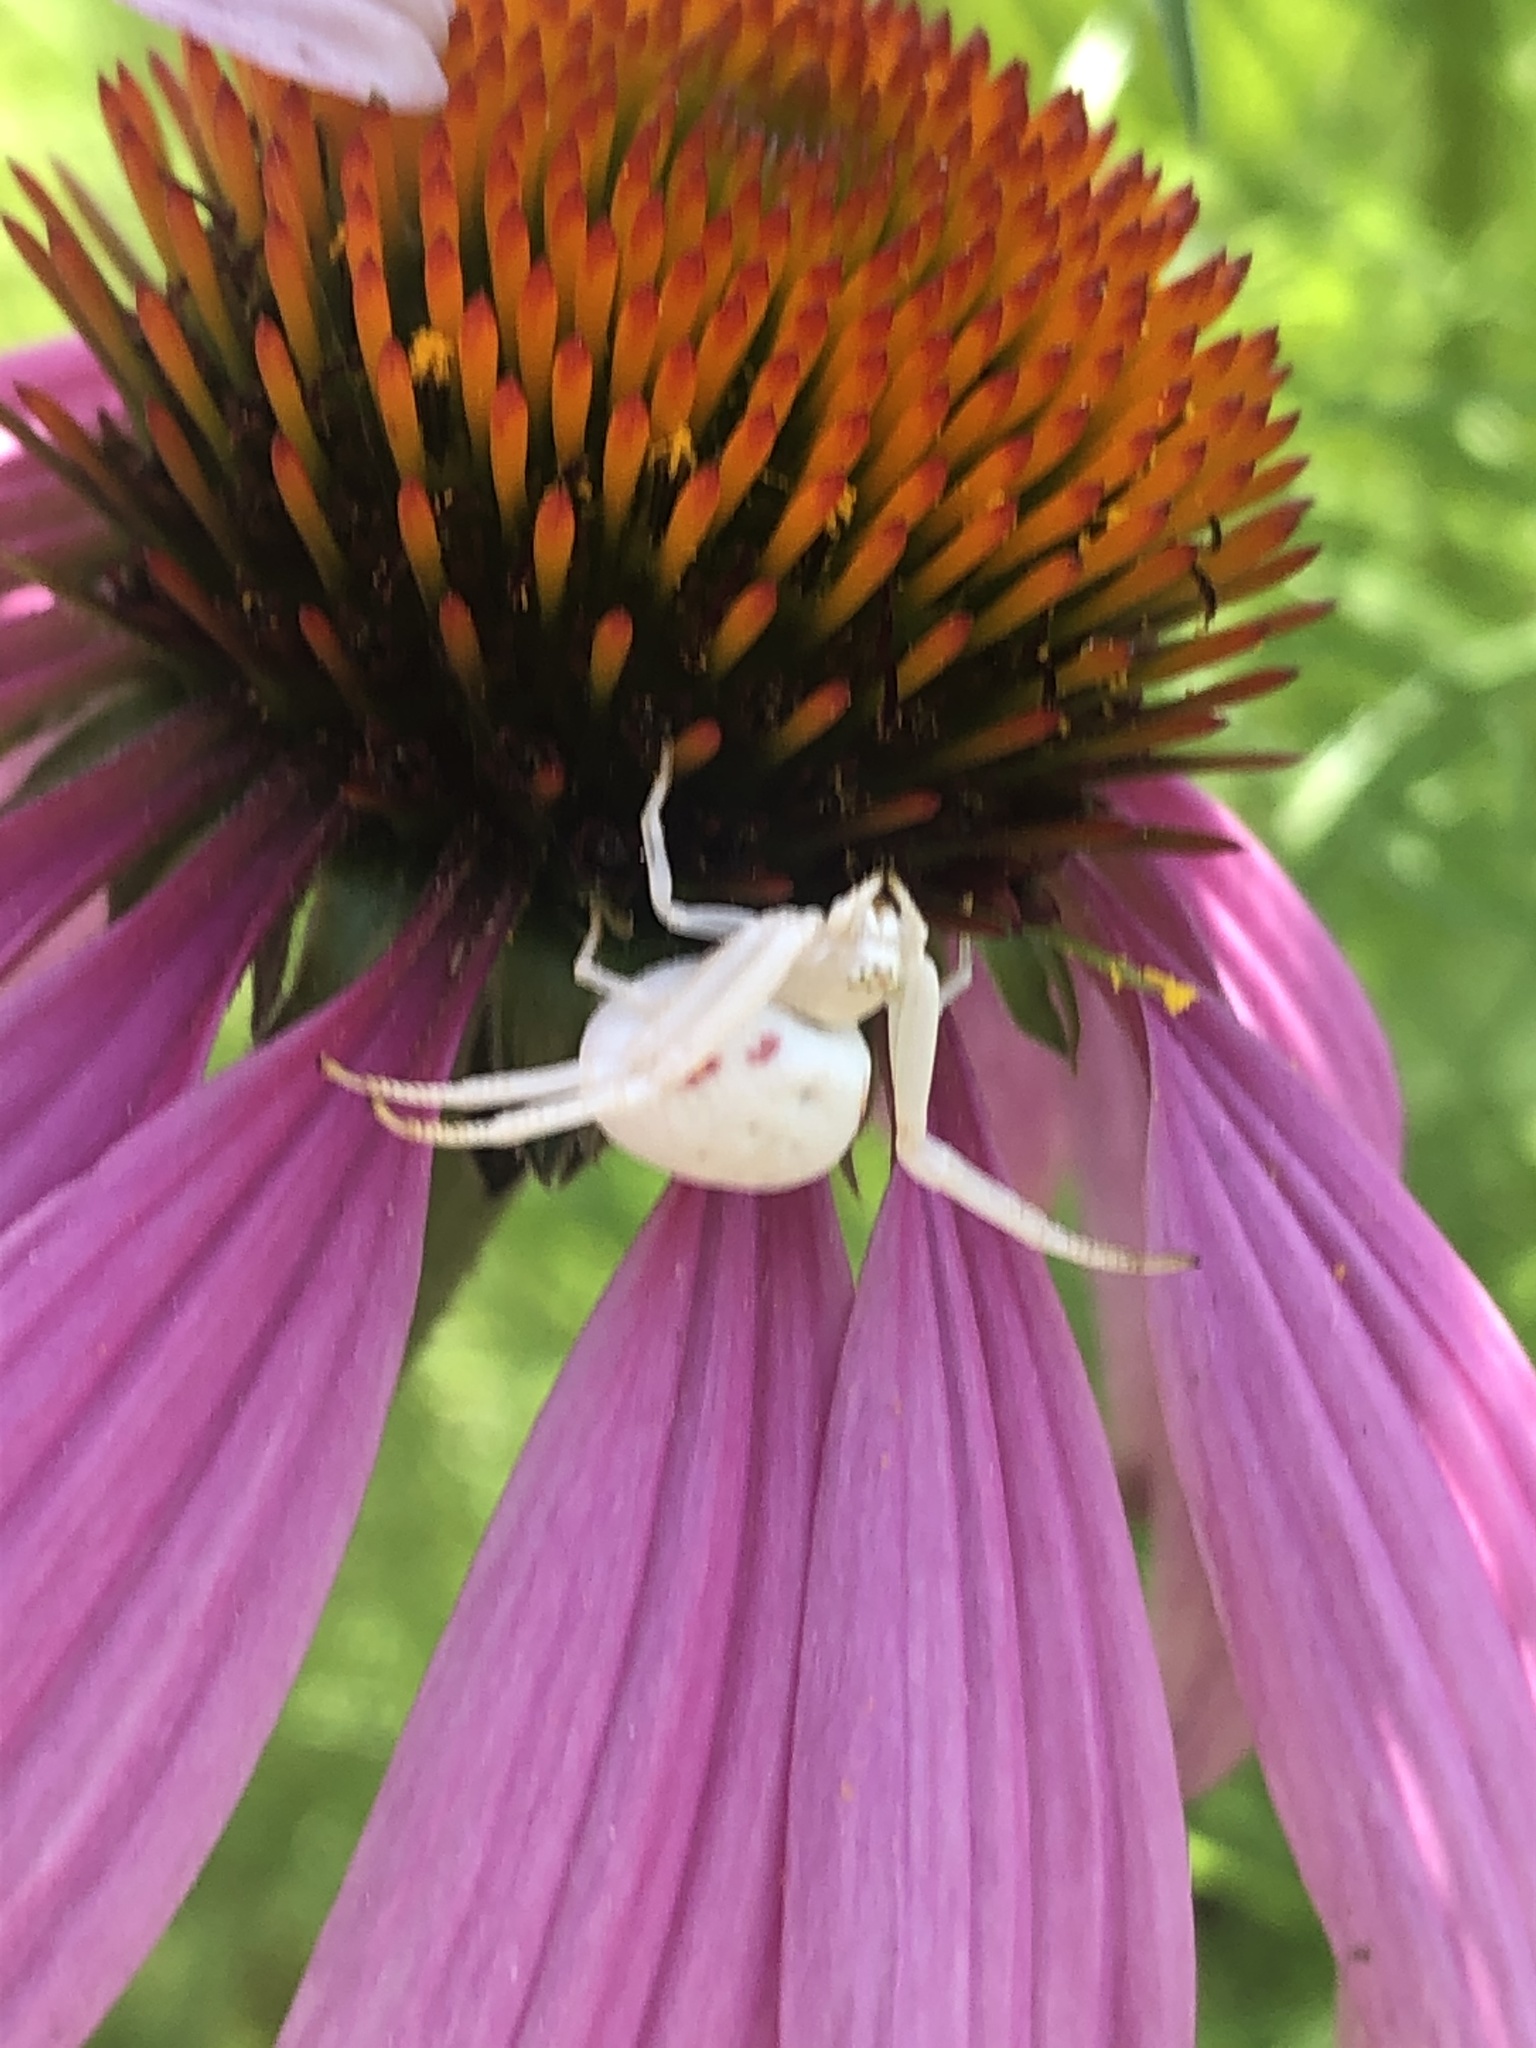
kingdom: Animalia
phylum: Arthropoda
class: Arachnida
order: Araneae
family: Thomisidae
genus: Misumena
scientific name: Misumena vatia
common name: Goldenrod crab spider
